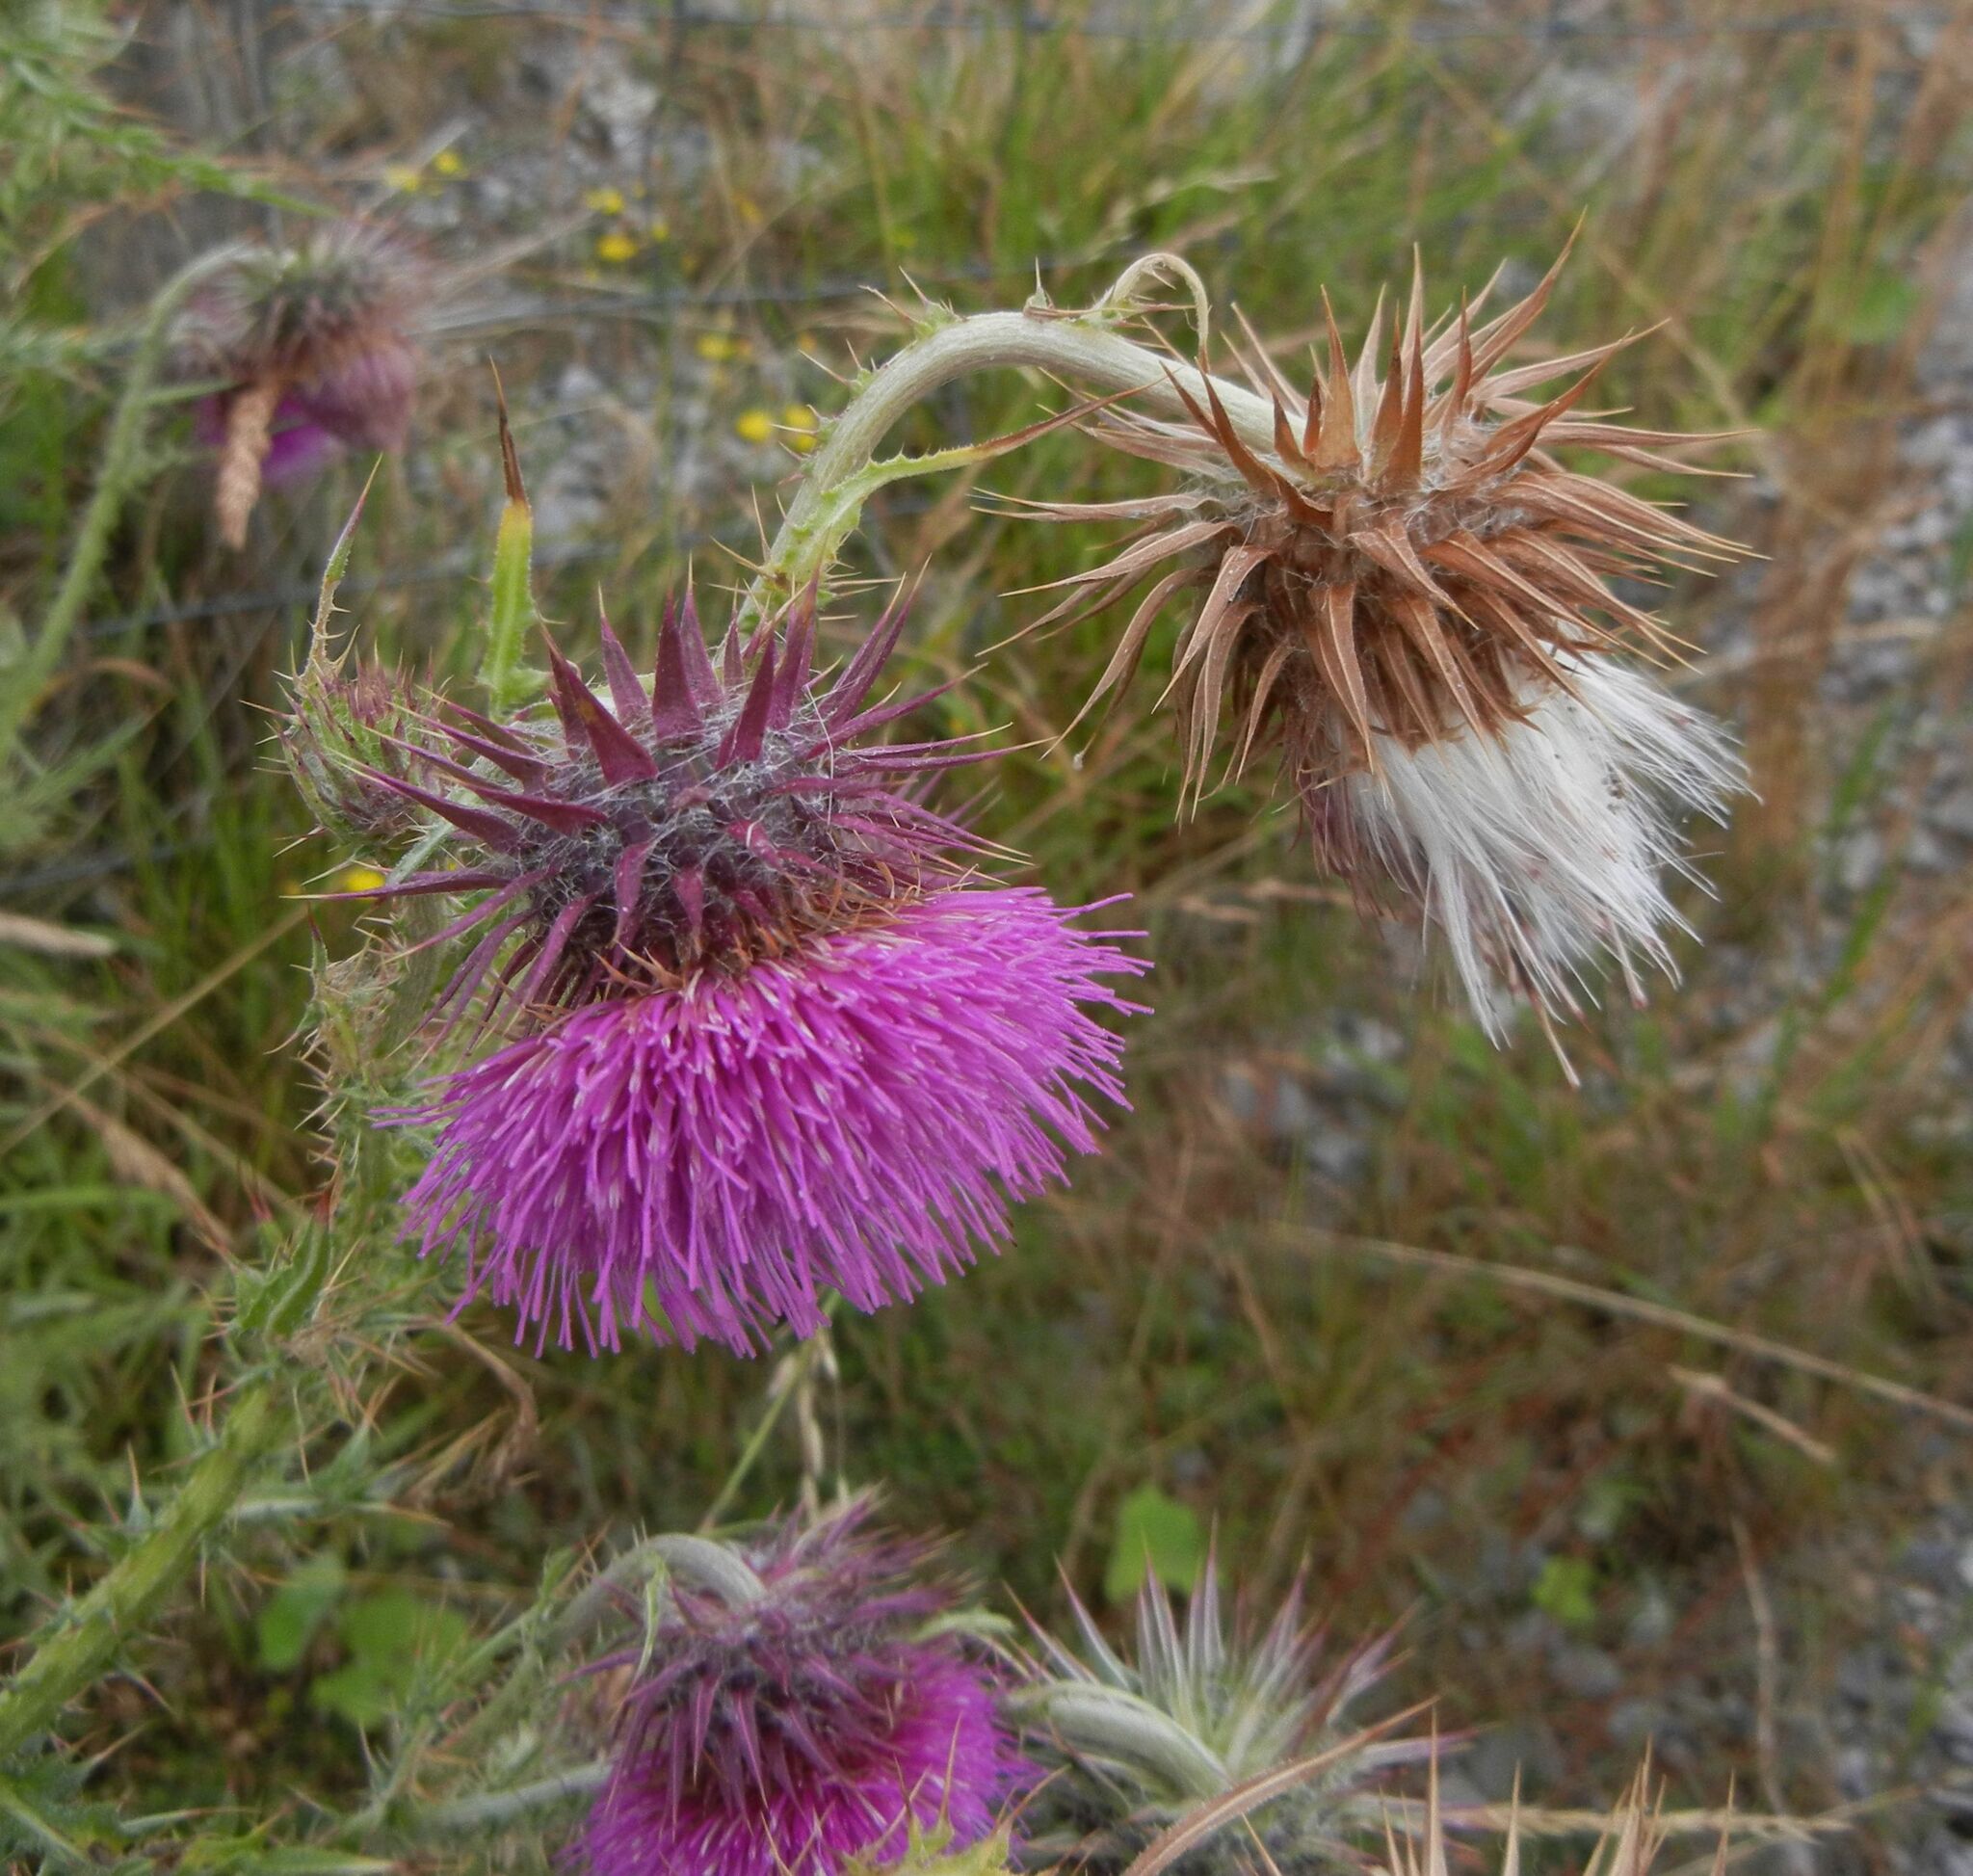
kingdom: Plantae
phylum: Tracheophyta
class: Magnoliopsida
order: Asterales
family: Asteraceae
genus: Carduus
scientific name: Carduus nutans
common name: Musk thistle
